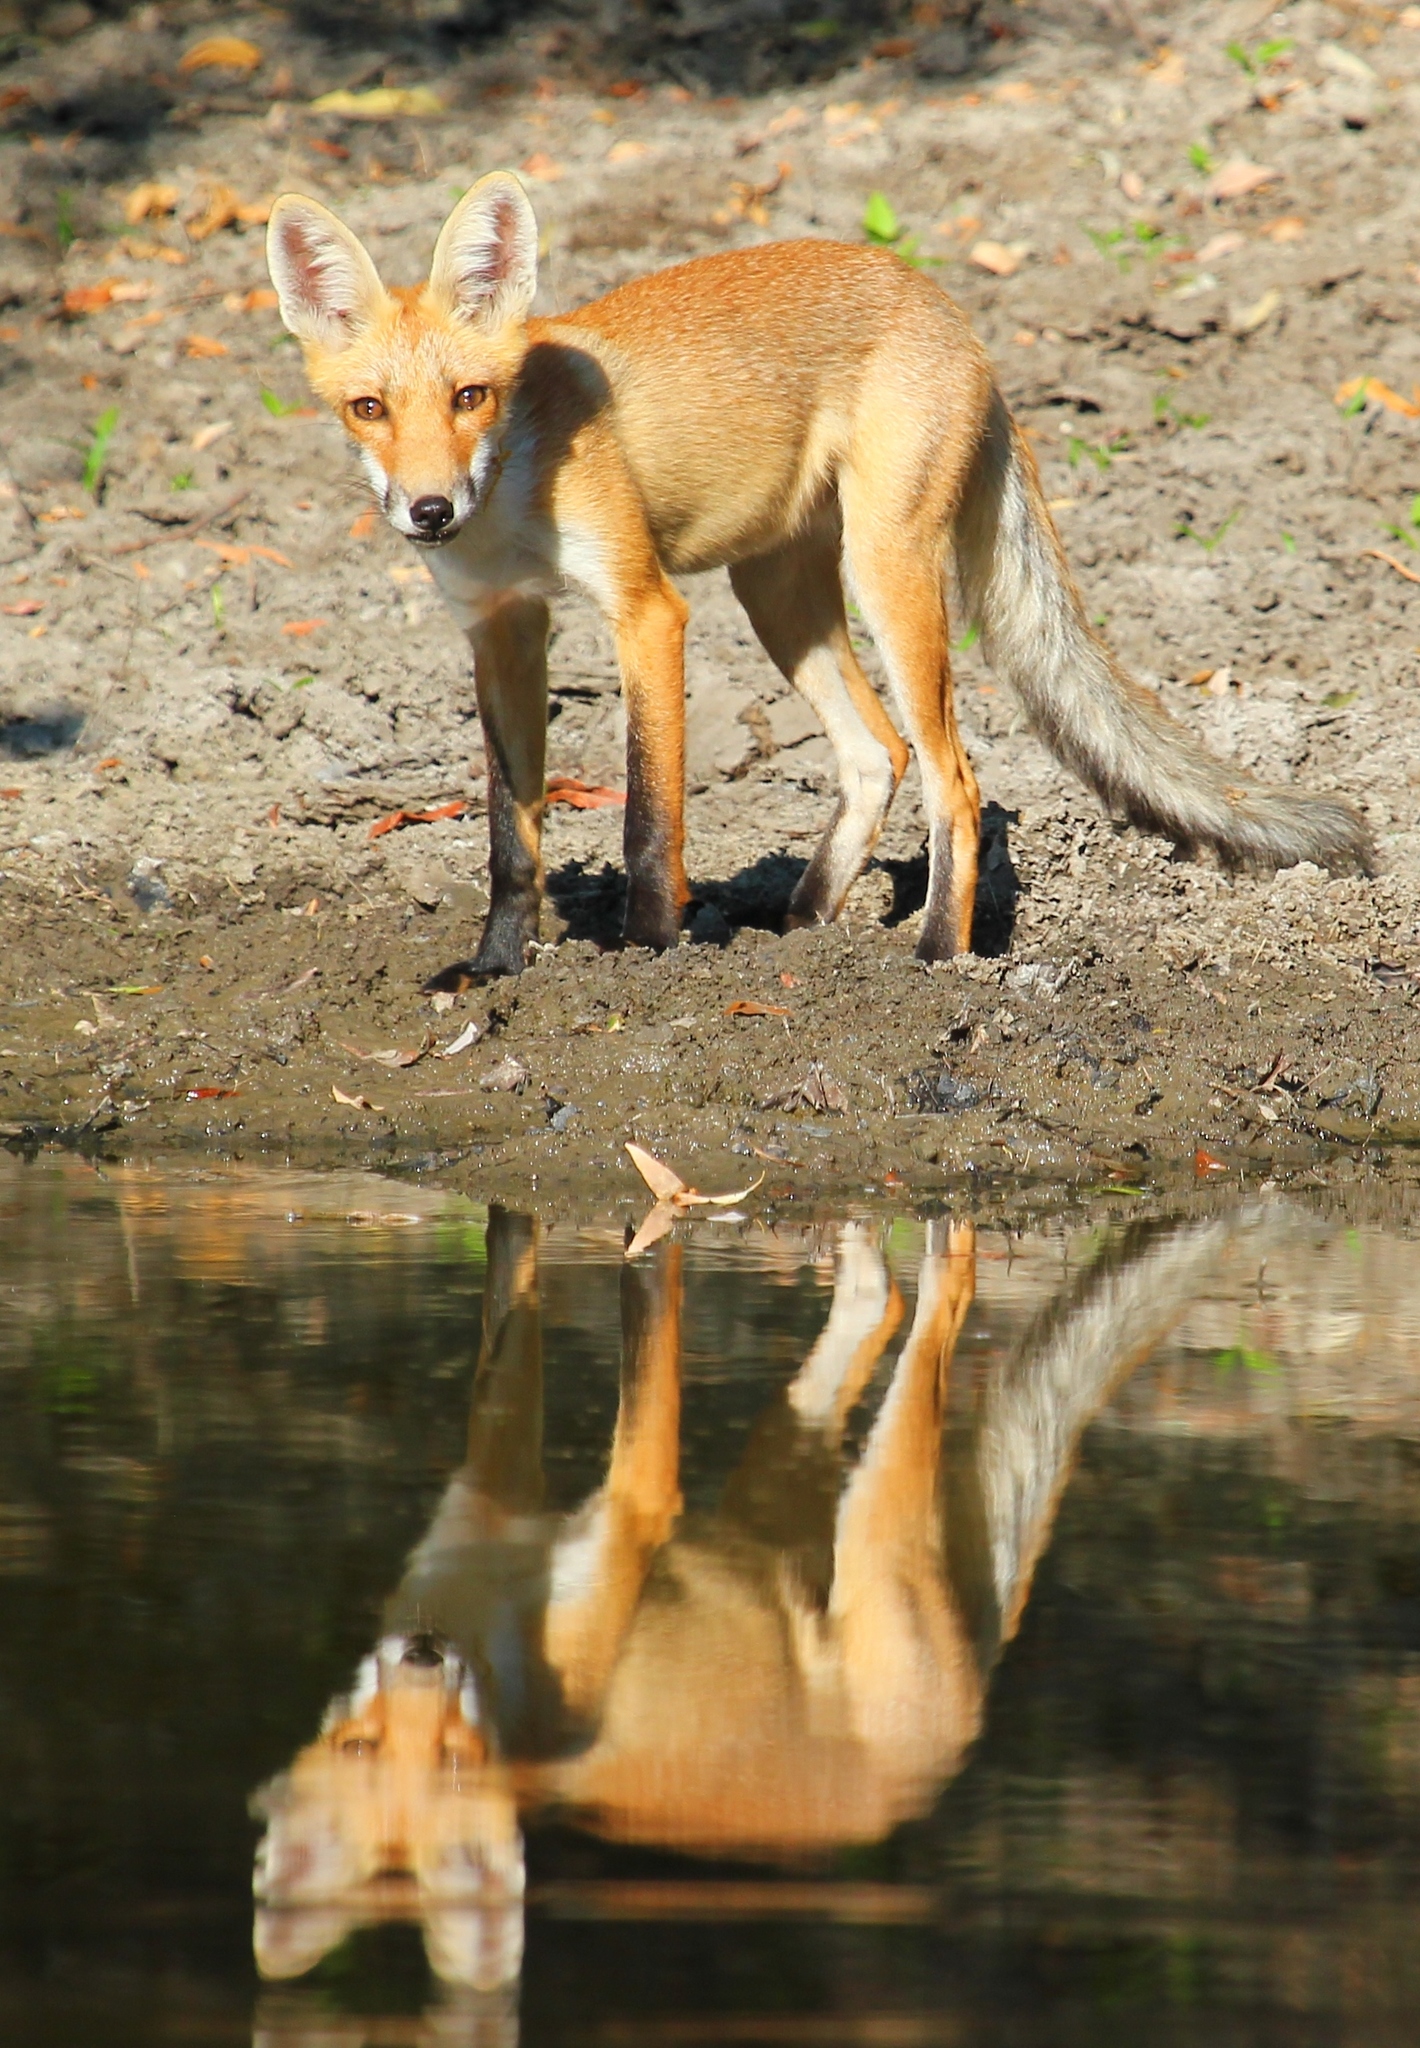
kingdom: Animalia
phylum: Chordata
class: Mammalia
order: Carnivora
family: Canidae
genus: Vulpes
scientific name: Vulpes vulpes
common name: Red fox
